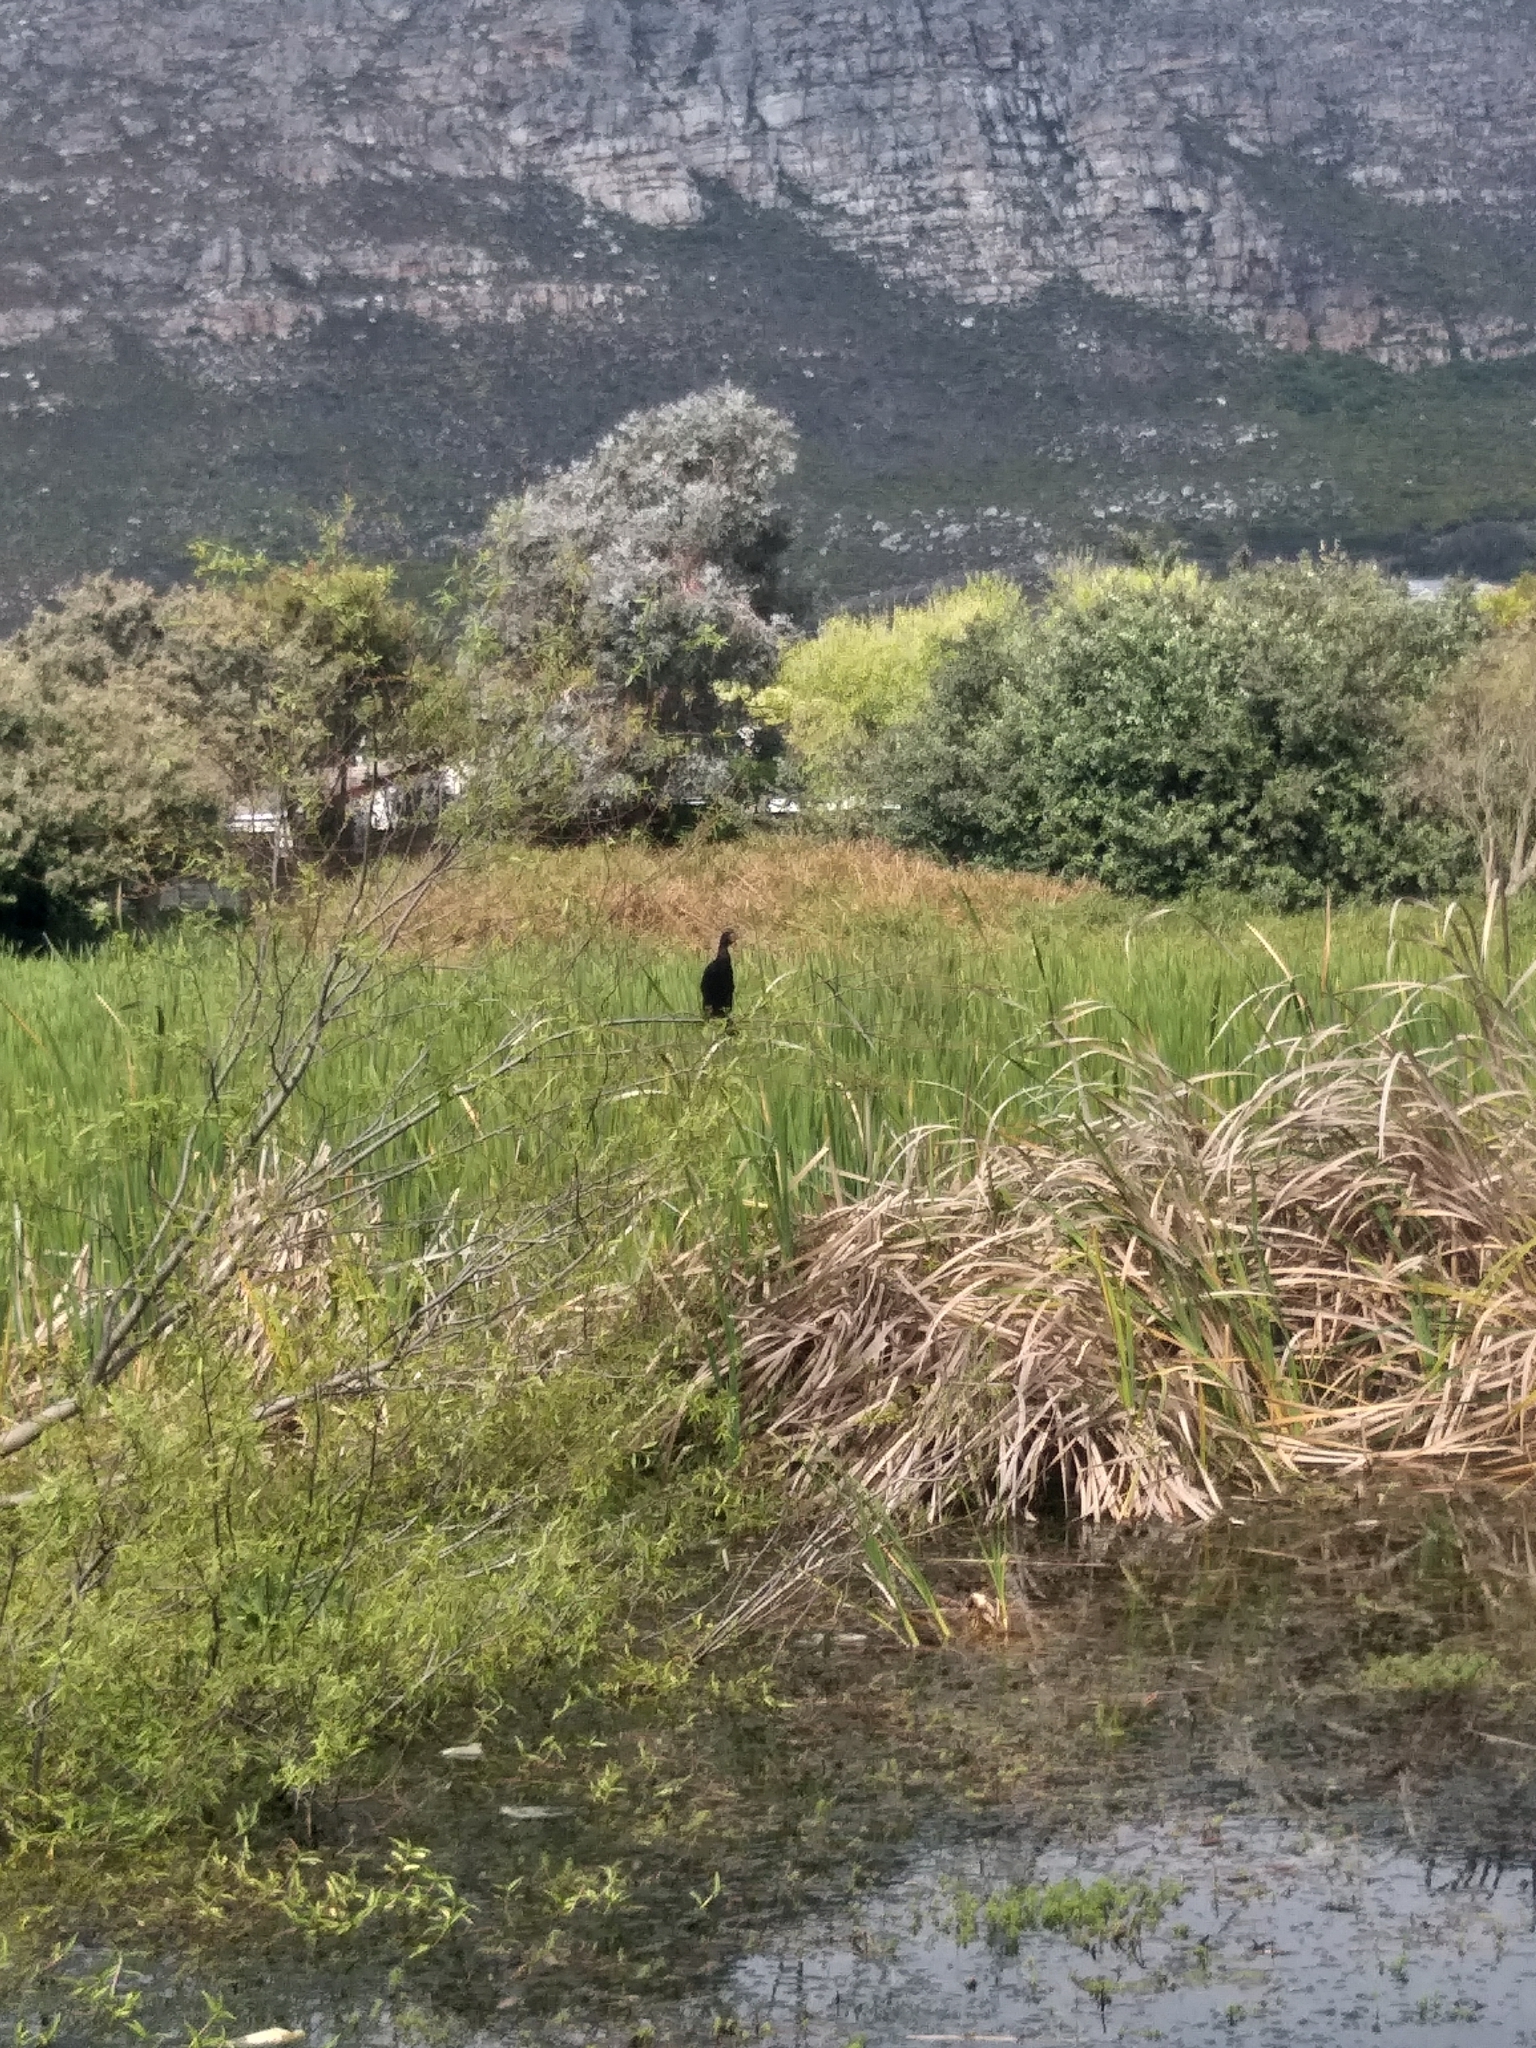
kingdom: Animalia
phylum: Chordata
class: Aves
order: Suliformes
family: Phalacrocoracidae
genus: Microcarbo
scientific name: Microcarbo africanus
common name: Long-tailed cormorant
